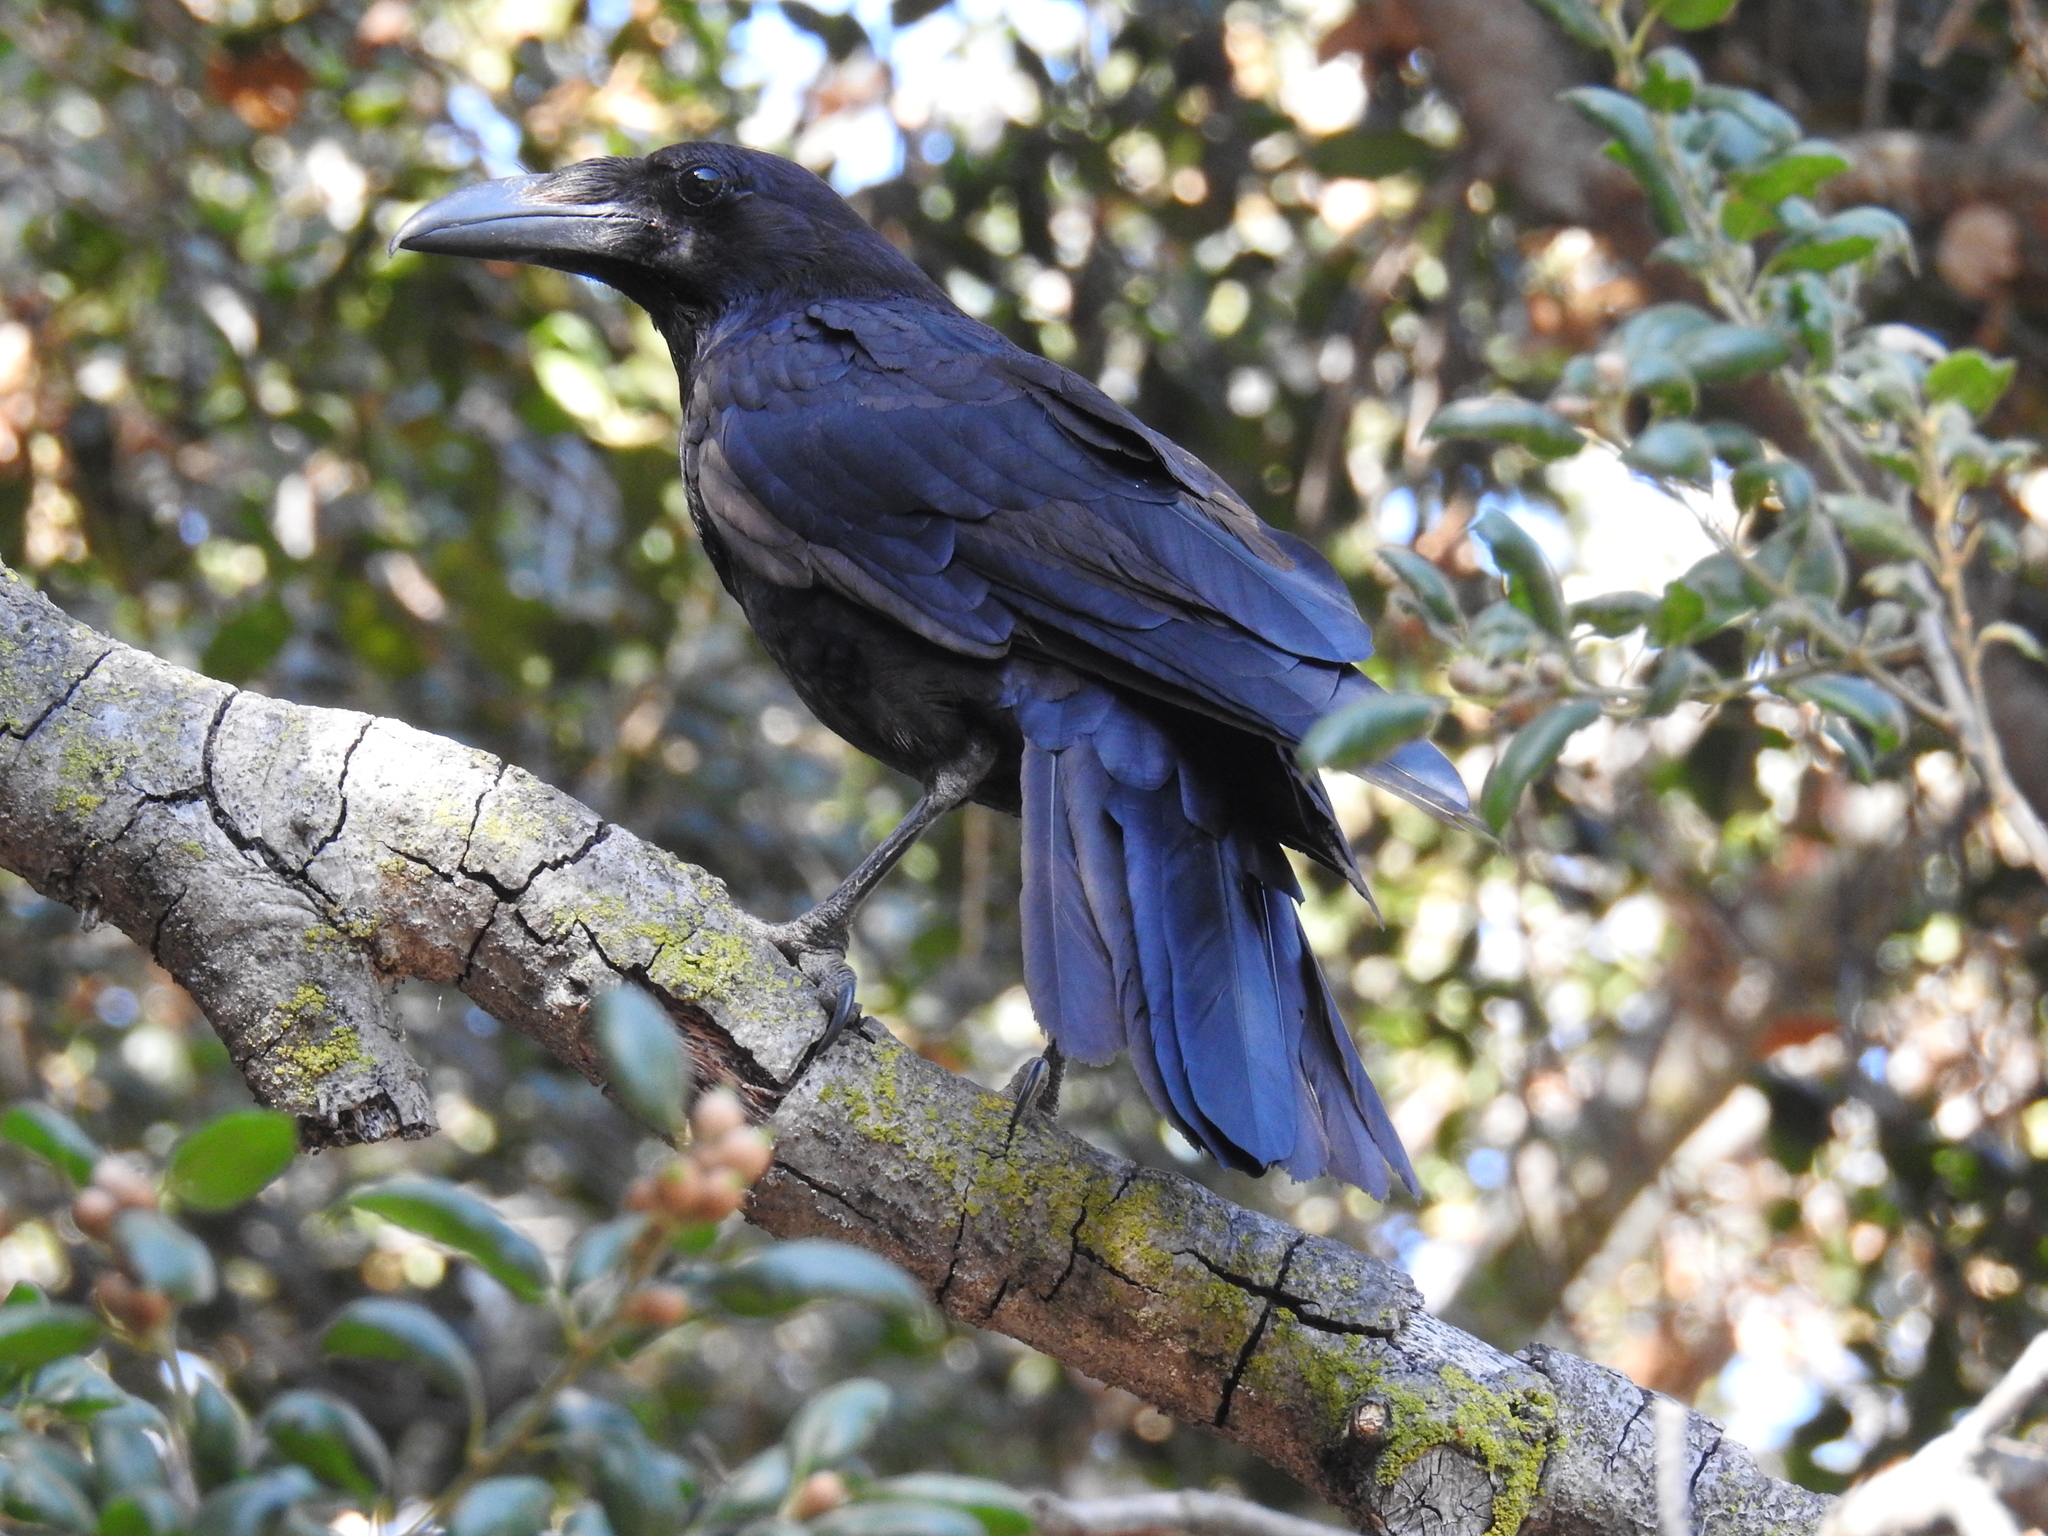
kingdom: Animalia
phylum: Chordata
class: Aves
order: Passeriformes
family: Corvidae
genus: Corvus
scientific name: Corvus corax
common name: Common raven
